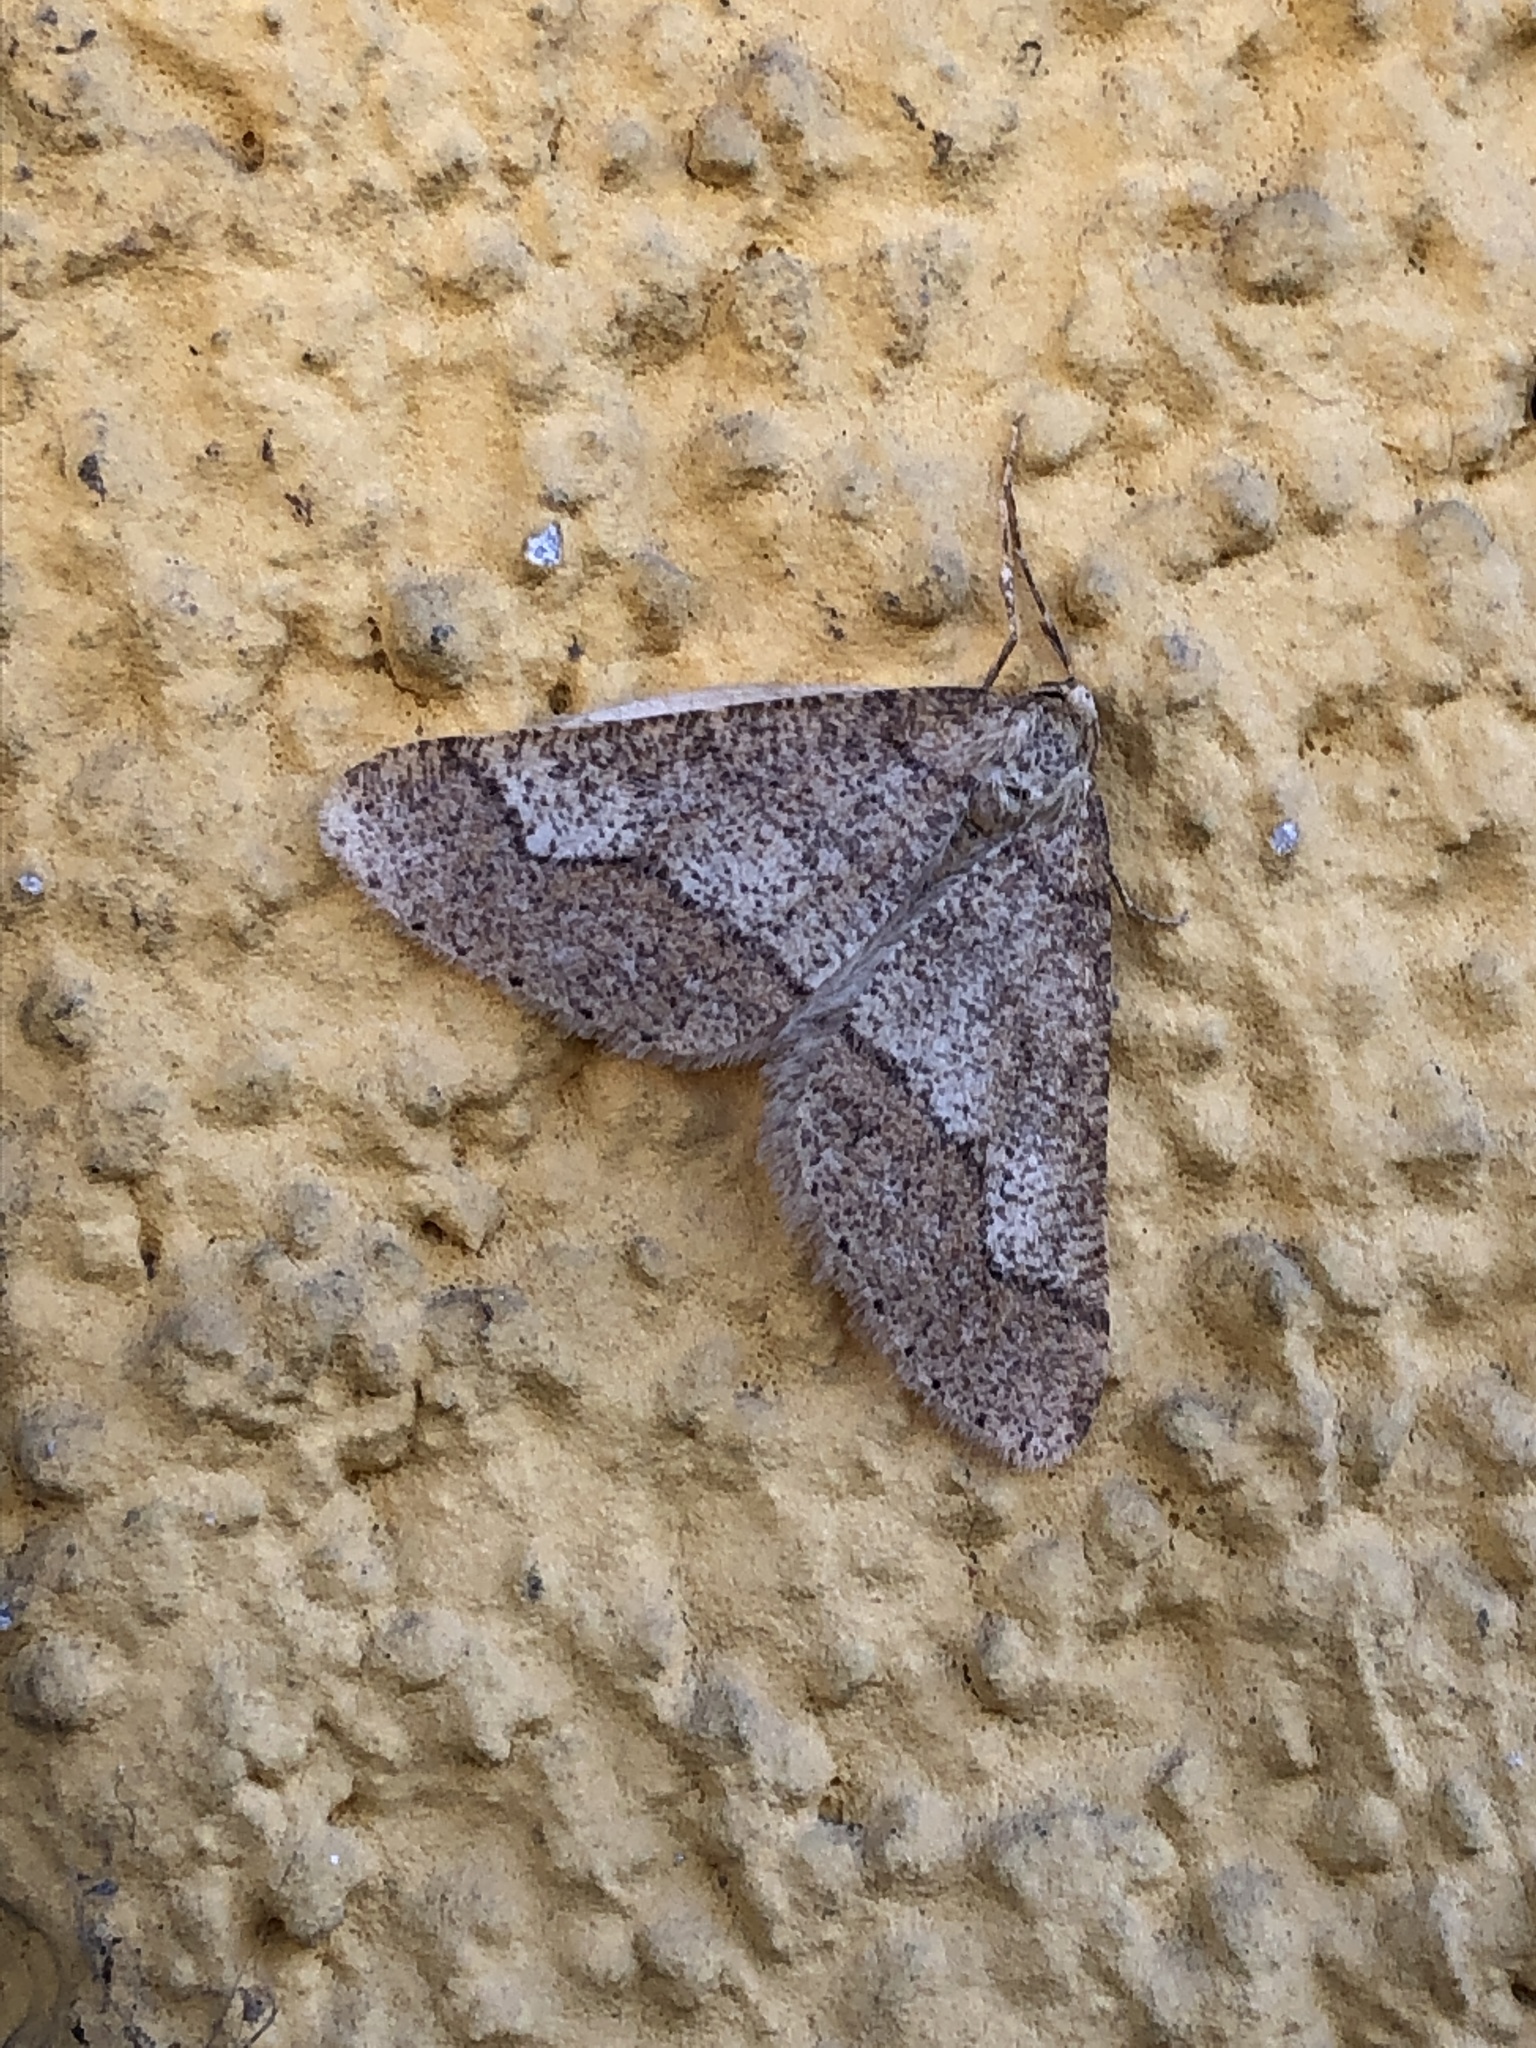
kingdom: Animalia
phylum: Arthropoda
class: Insecta
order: Lepidoptera
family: Geometridae
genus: Agriopis
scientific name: Agriopis marginaria
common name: Dotted border
